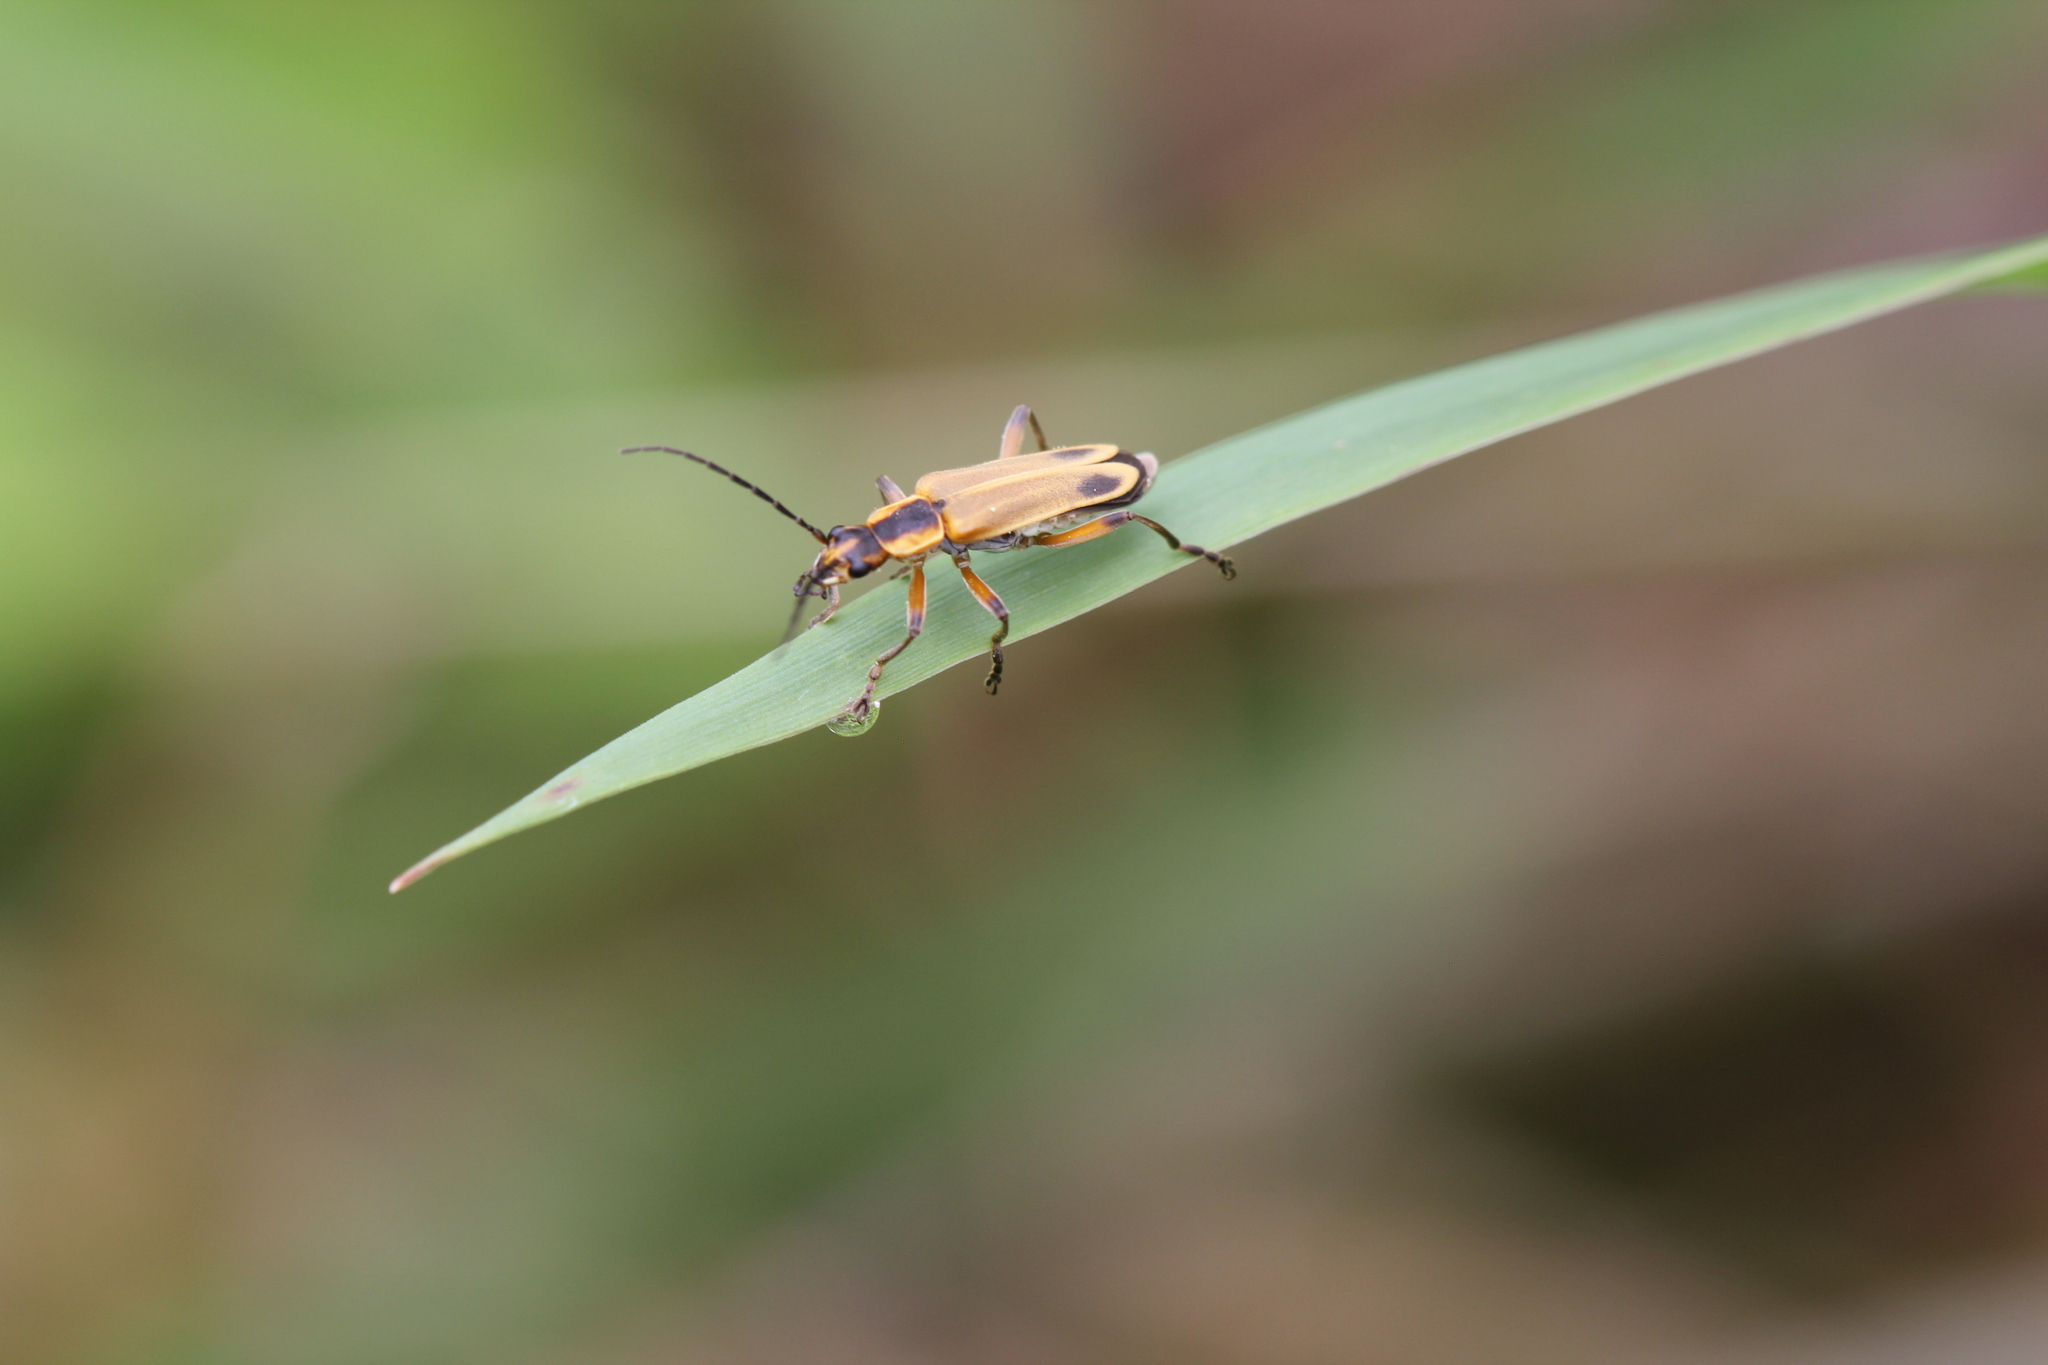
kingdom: Animalia
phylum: Arthropoda
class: Insecta
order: Coleoptera
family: Cantharidae
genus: Chauliognathus
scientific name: Chauliognathus marginatus
